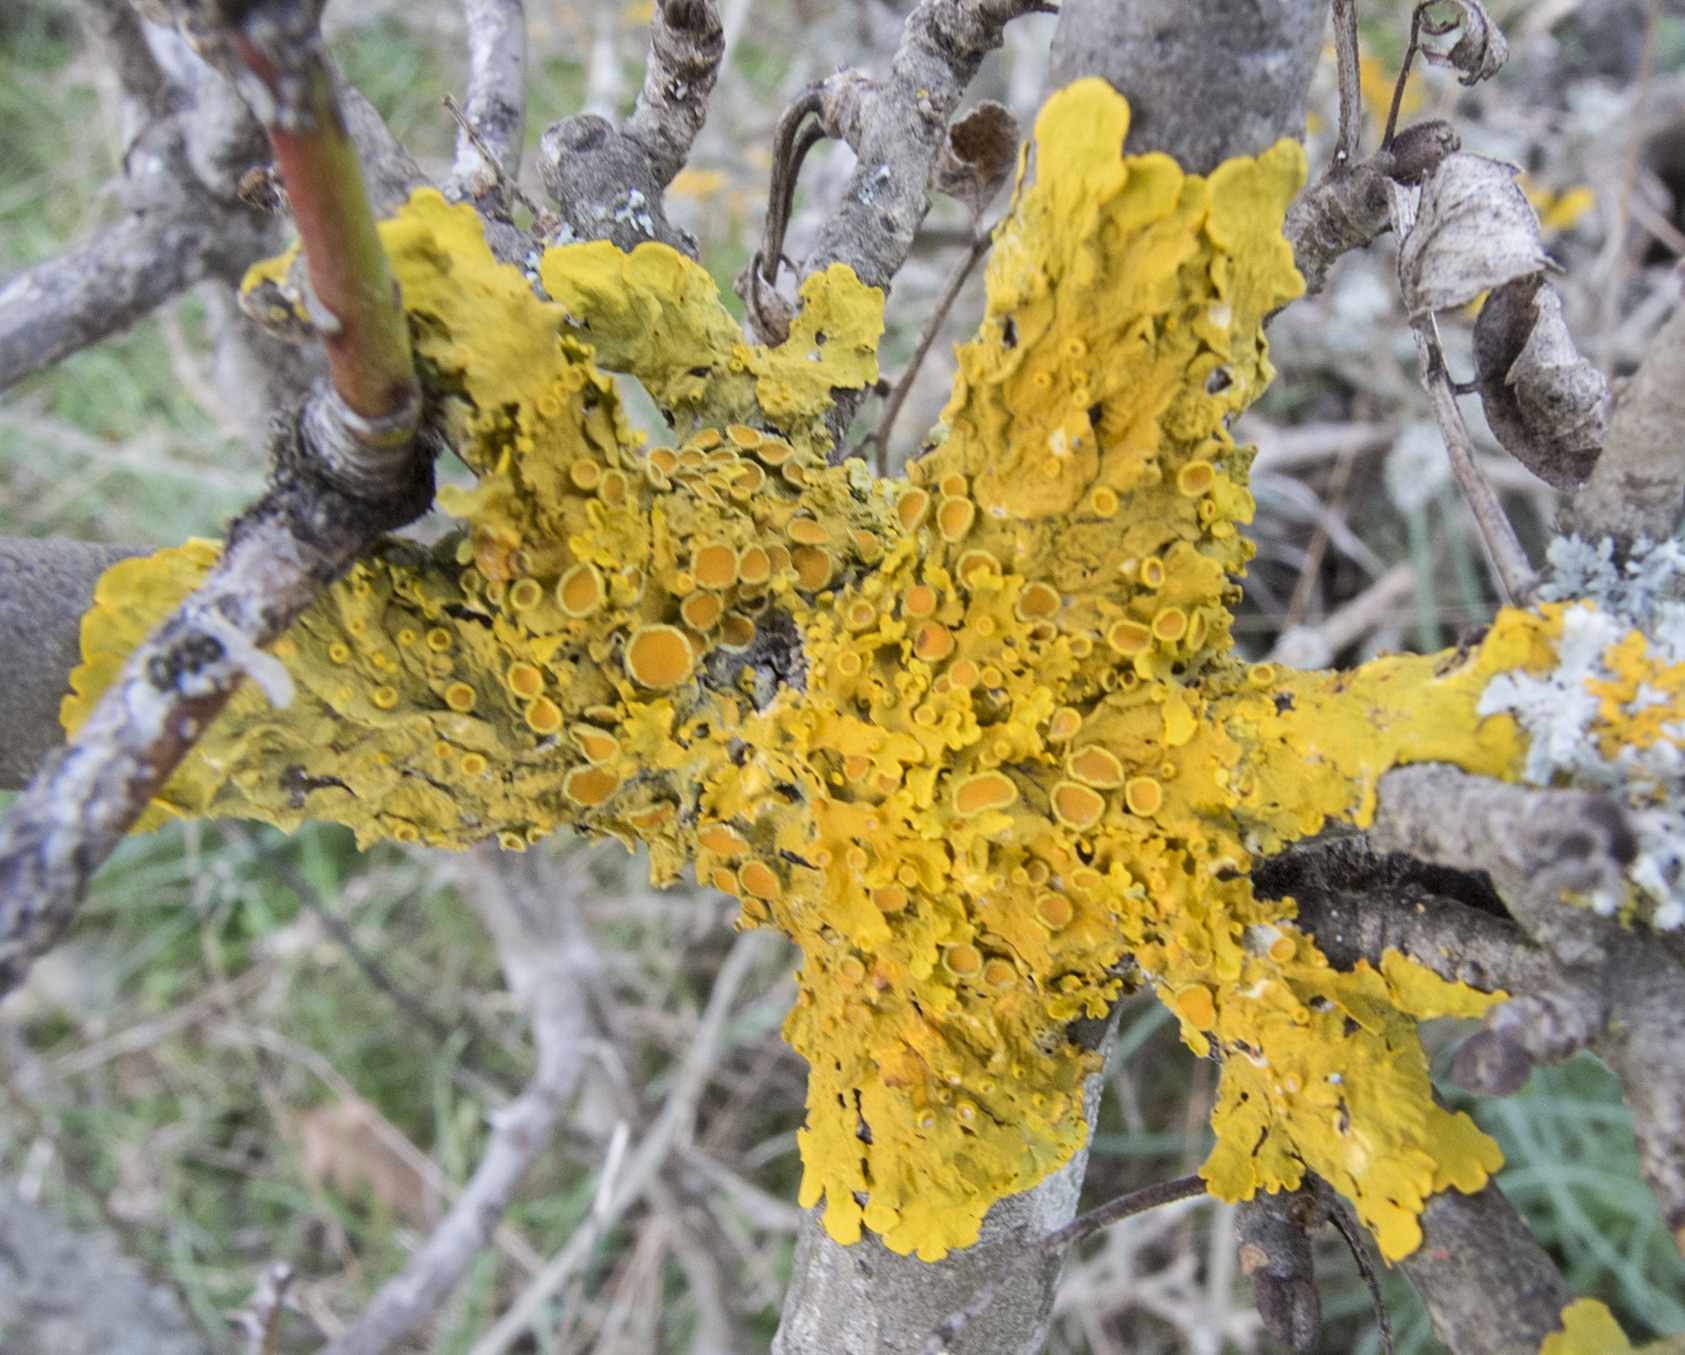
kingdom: Fungi
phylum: Ascomycota
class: Lecanoromycetes
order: Teloschistales
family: Teloschistaceae
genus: Xanthoria
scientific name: Xanthoria parietina
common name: Common orange lichen
